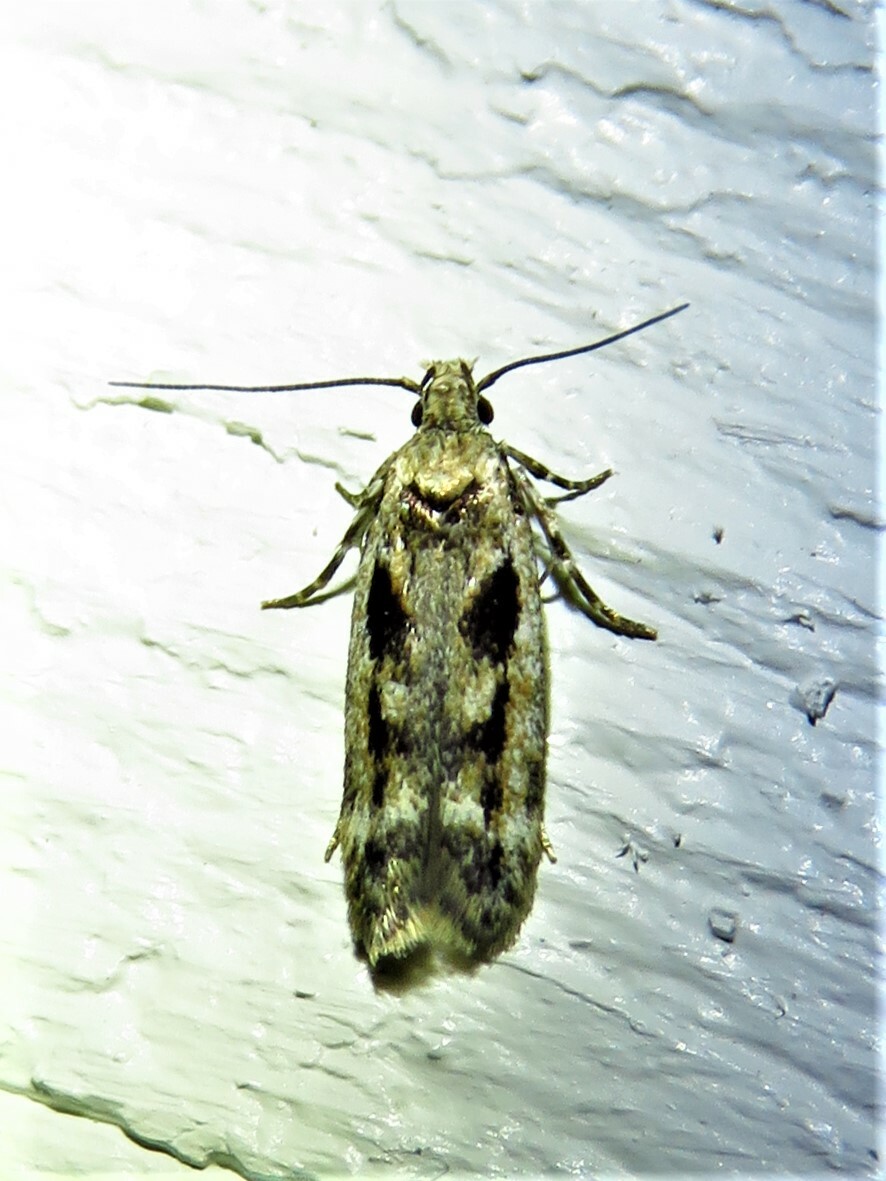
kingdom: Animalia
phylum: Arthropoda
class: Insecta
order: Lepidoptera
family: Gelechiidae
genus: Caryocolum
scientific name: Caryocolum fischerella
